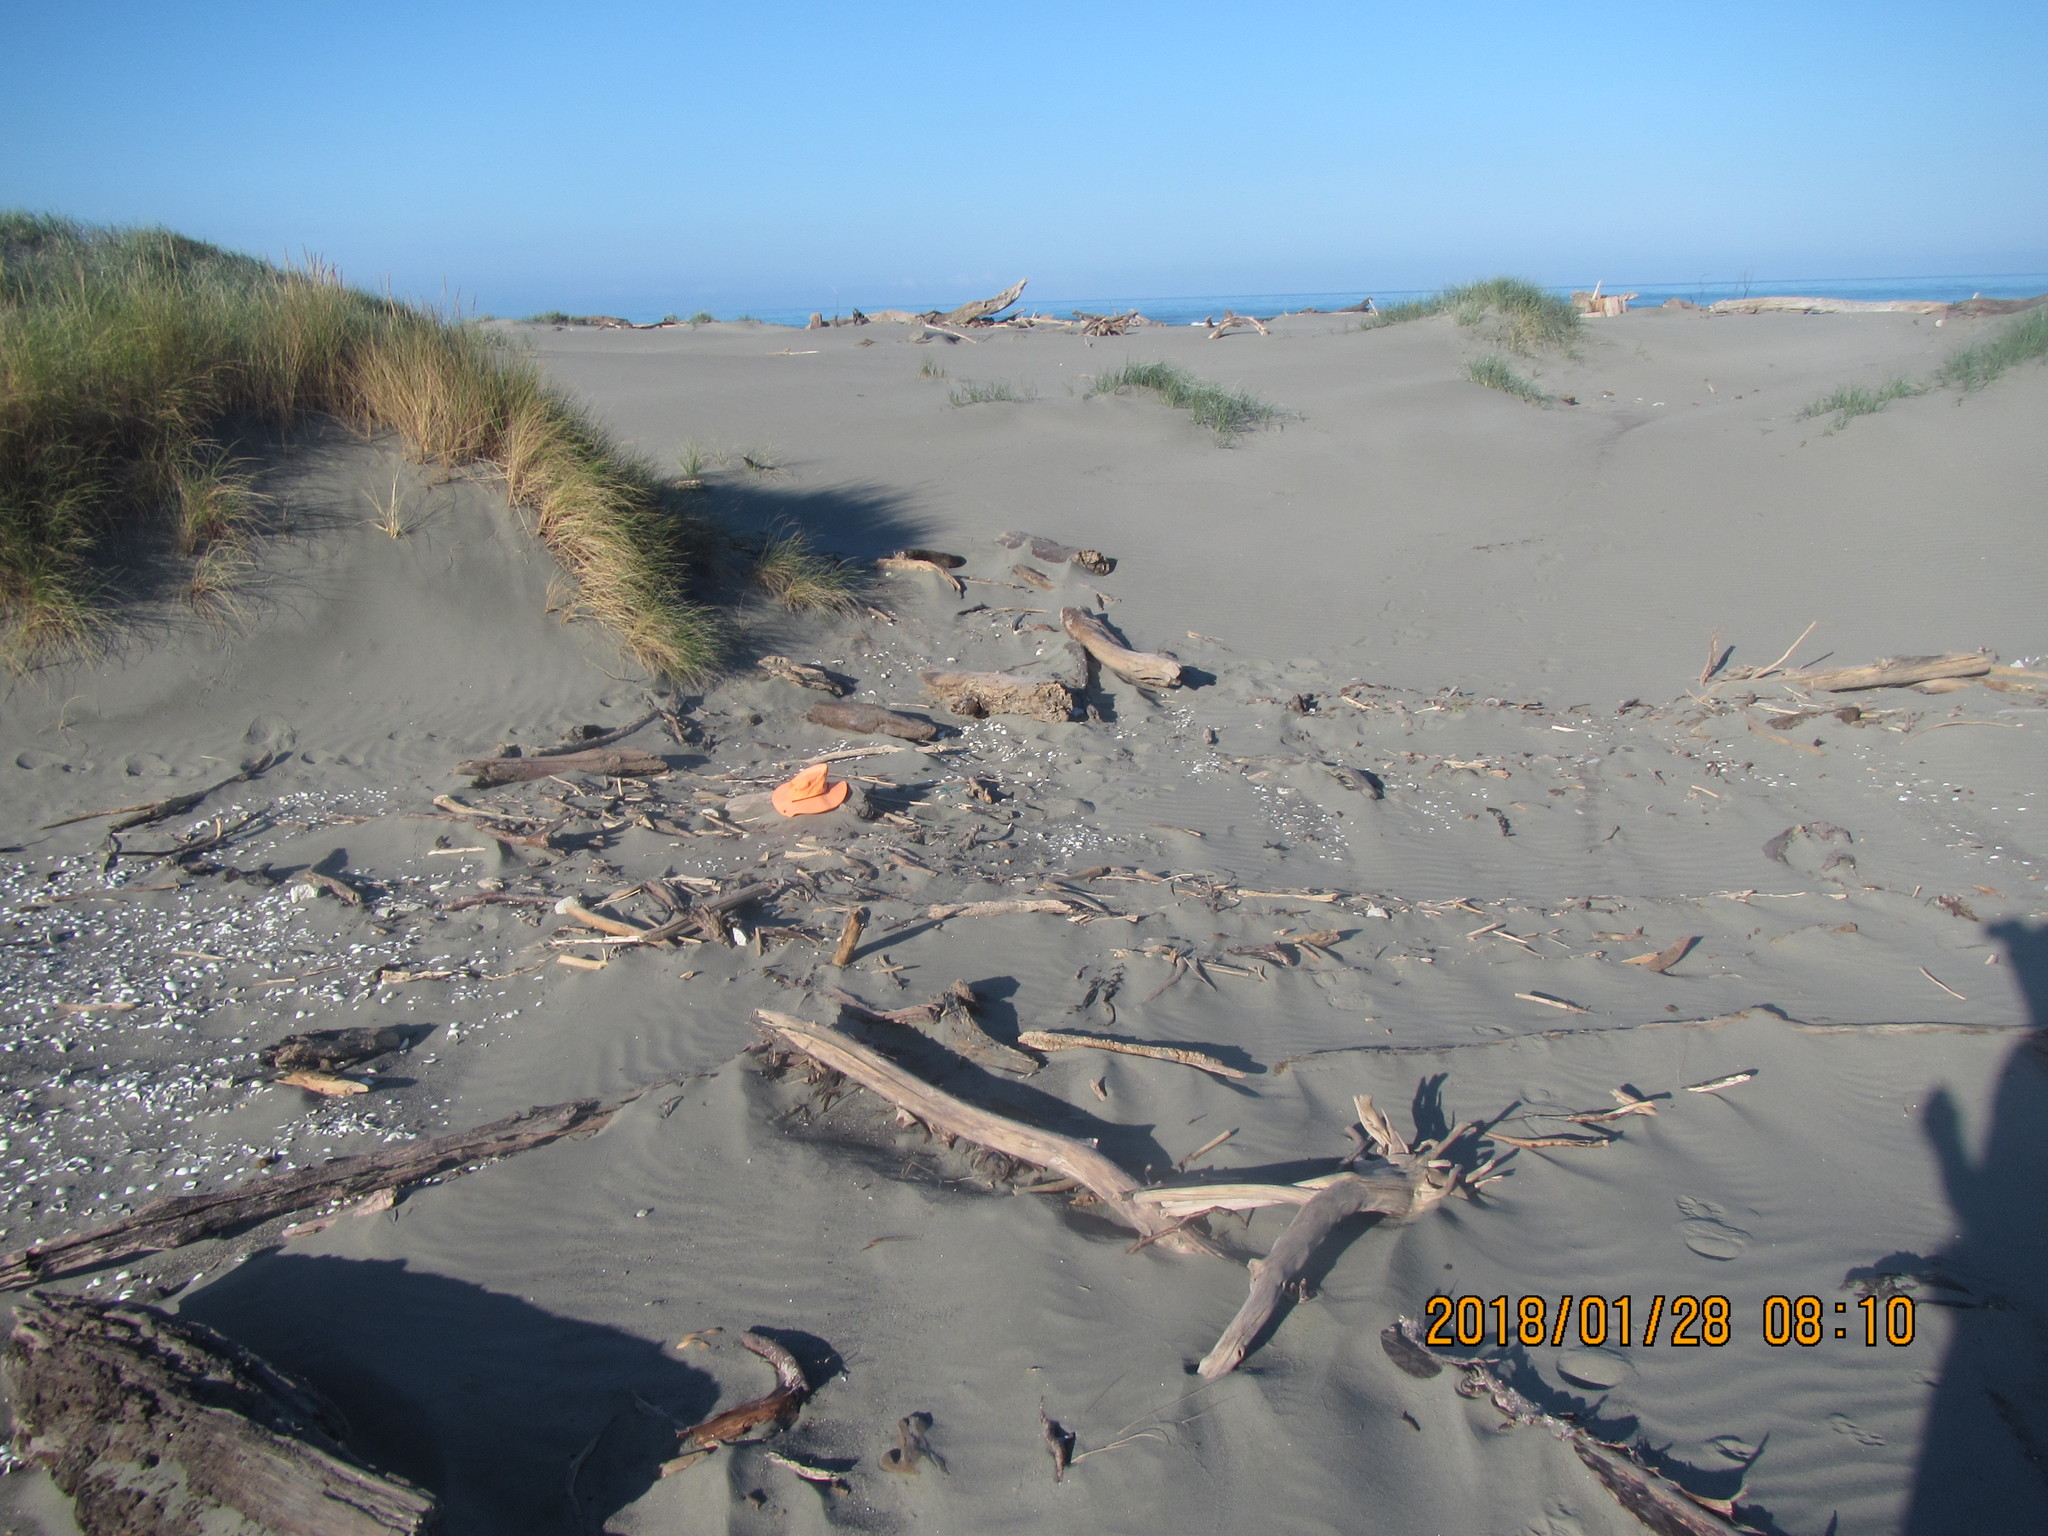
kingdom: Animalia
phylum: Mollusca
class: Gastropoda
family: Epitoniidae
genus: Janthina
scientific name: Janthina exigua
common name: Dwarf janthina
